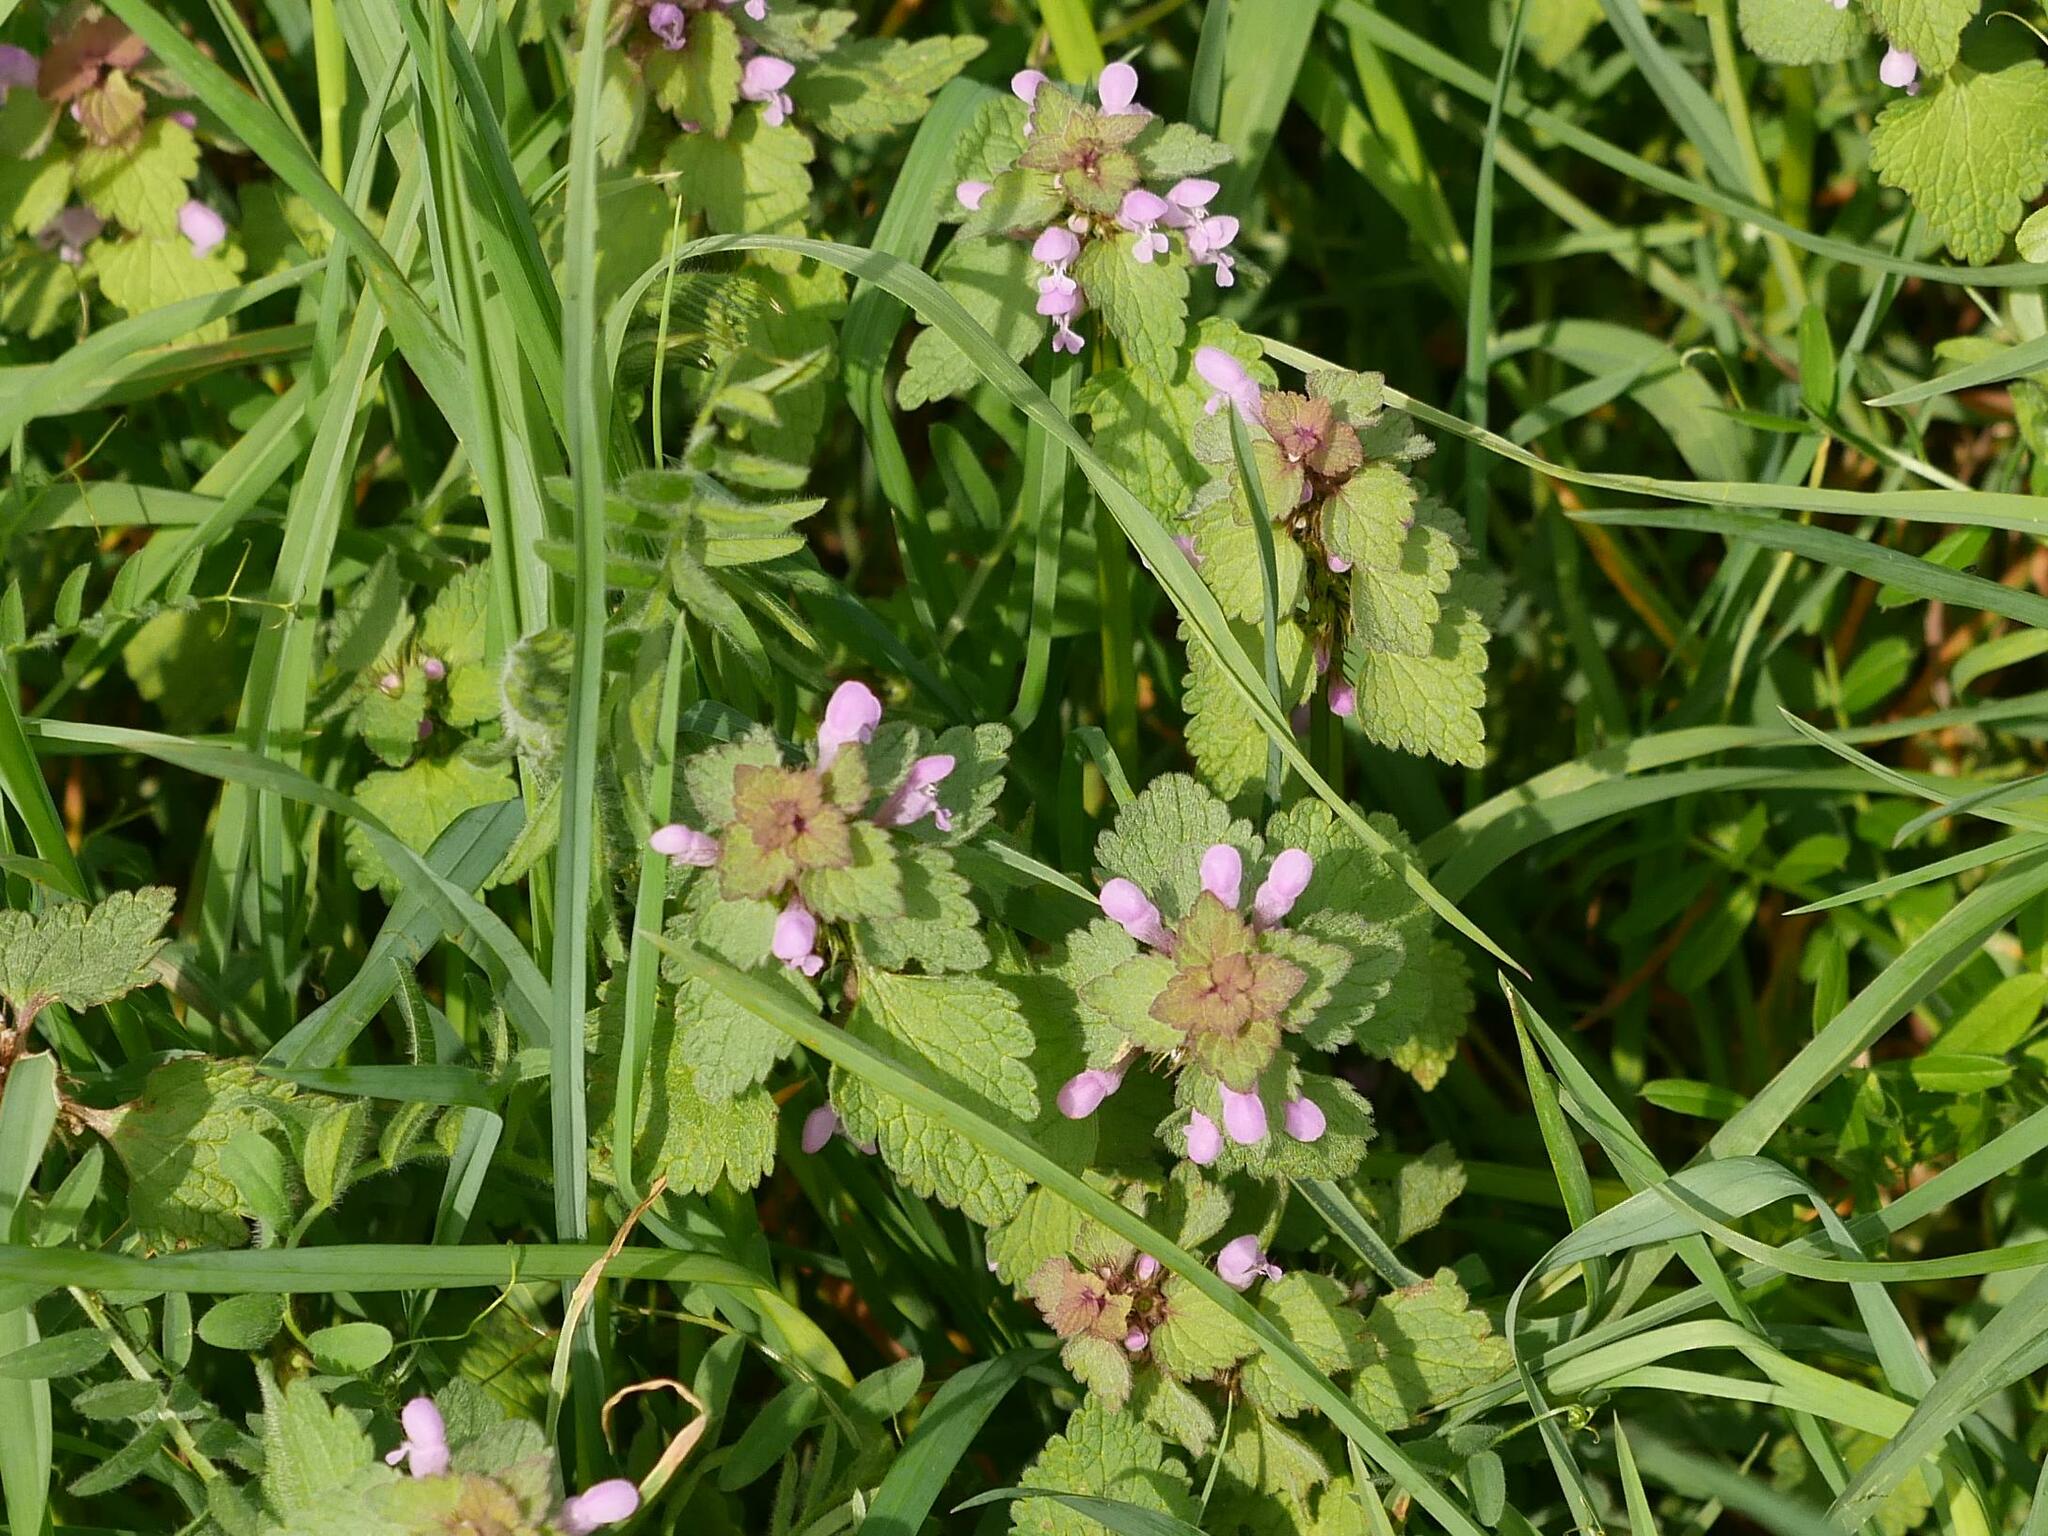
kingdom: Plantae
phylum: Tracheophyta
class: Magnoliopsida
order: Lamiales
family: Lamiaceae
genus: Lamium
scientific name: Lamium purpureum
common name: Red dead-nettle
